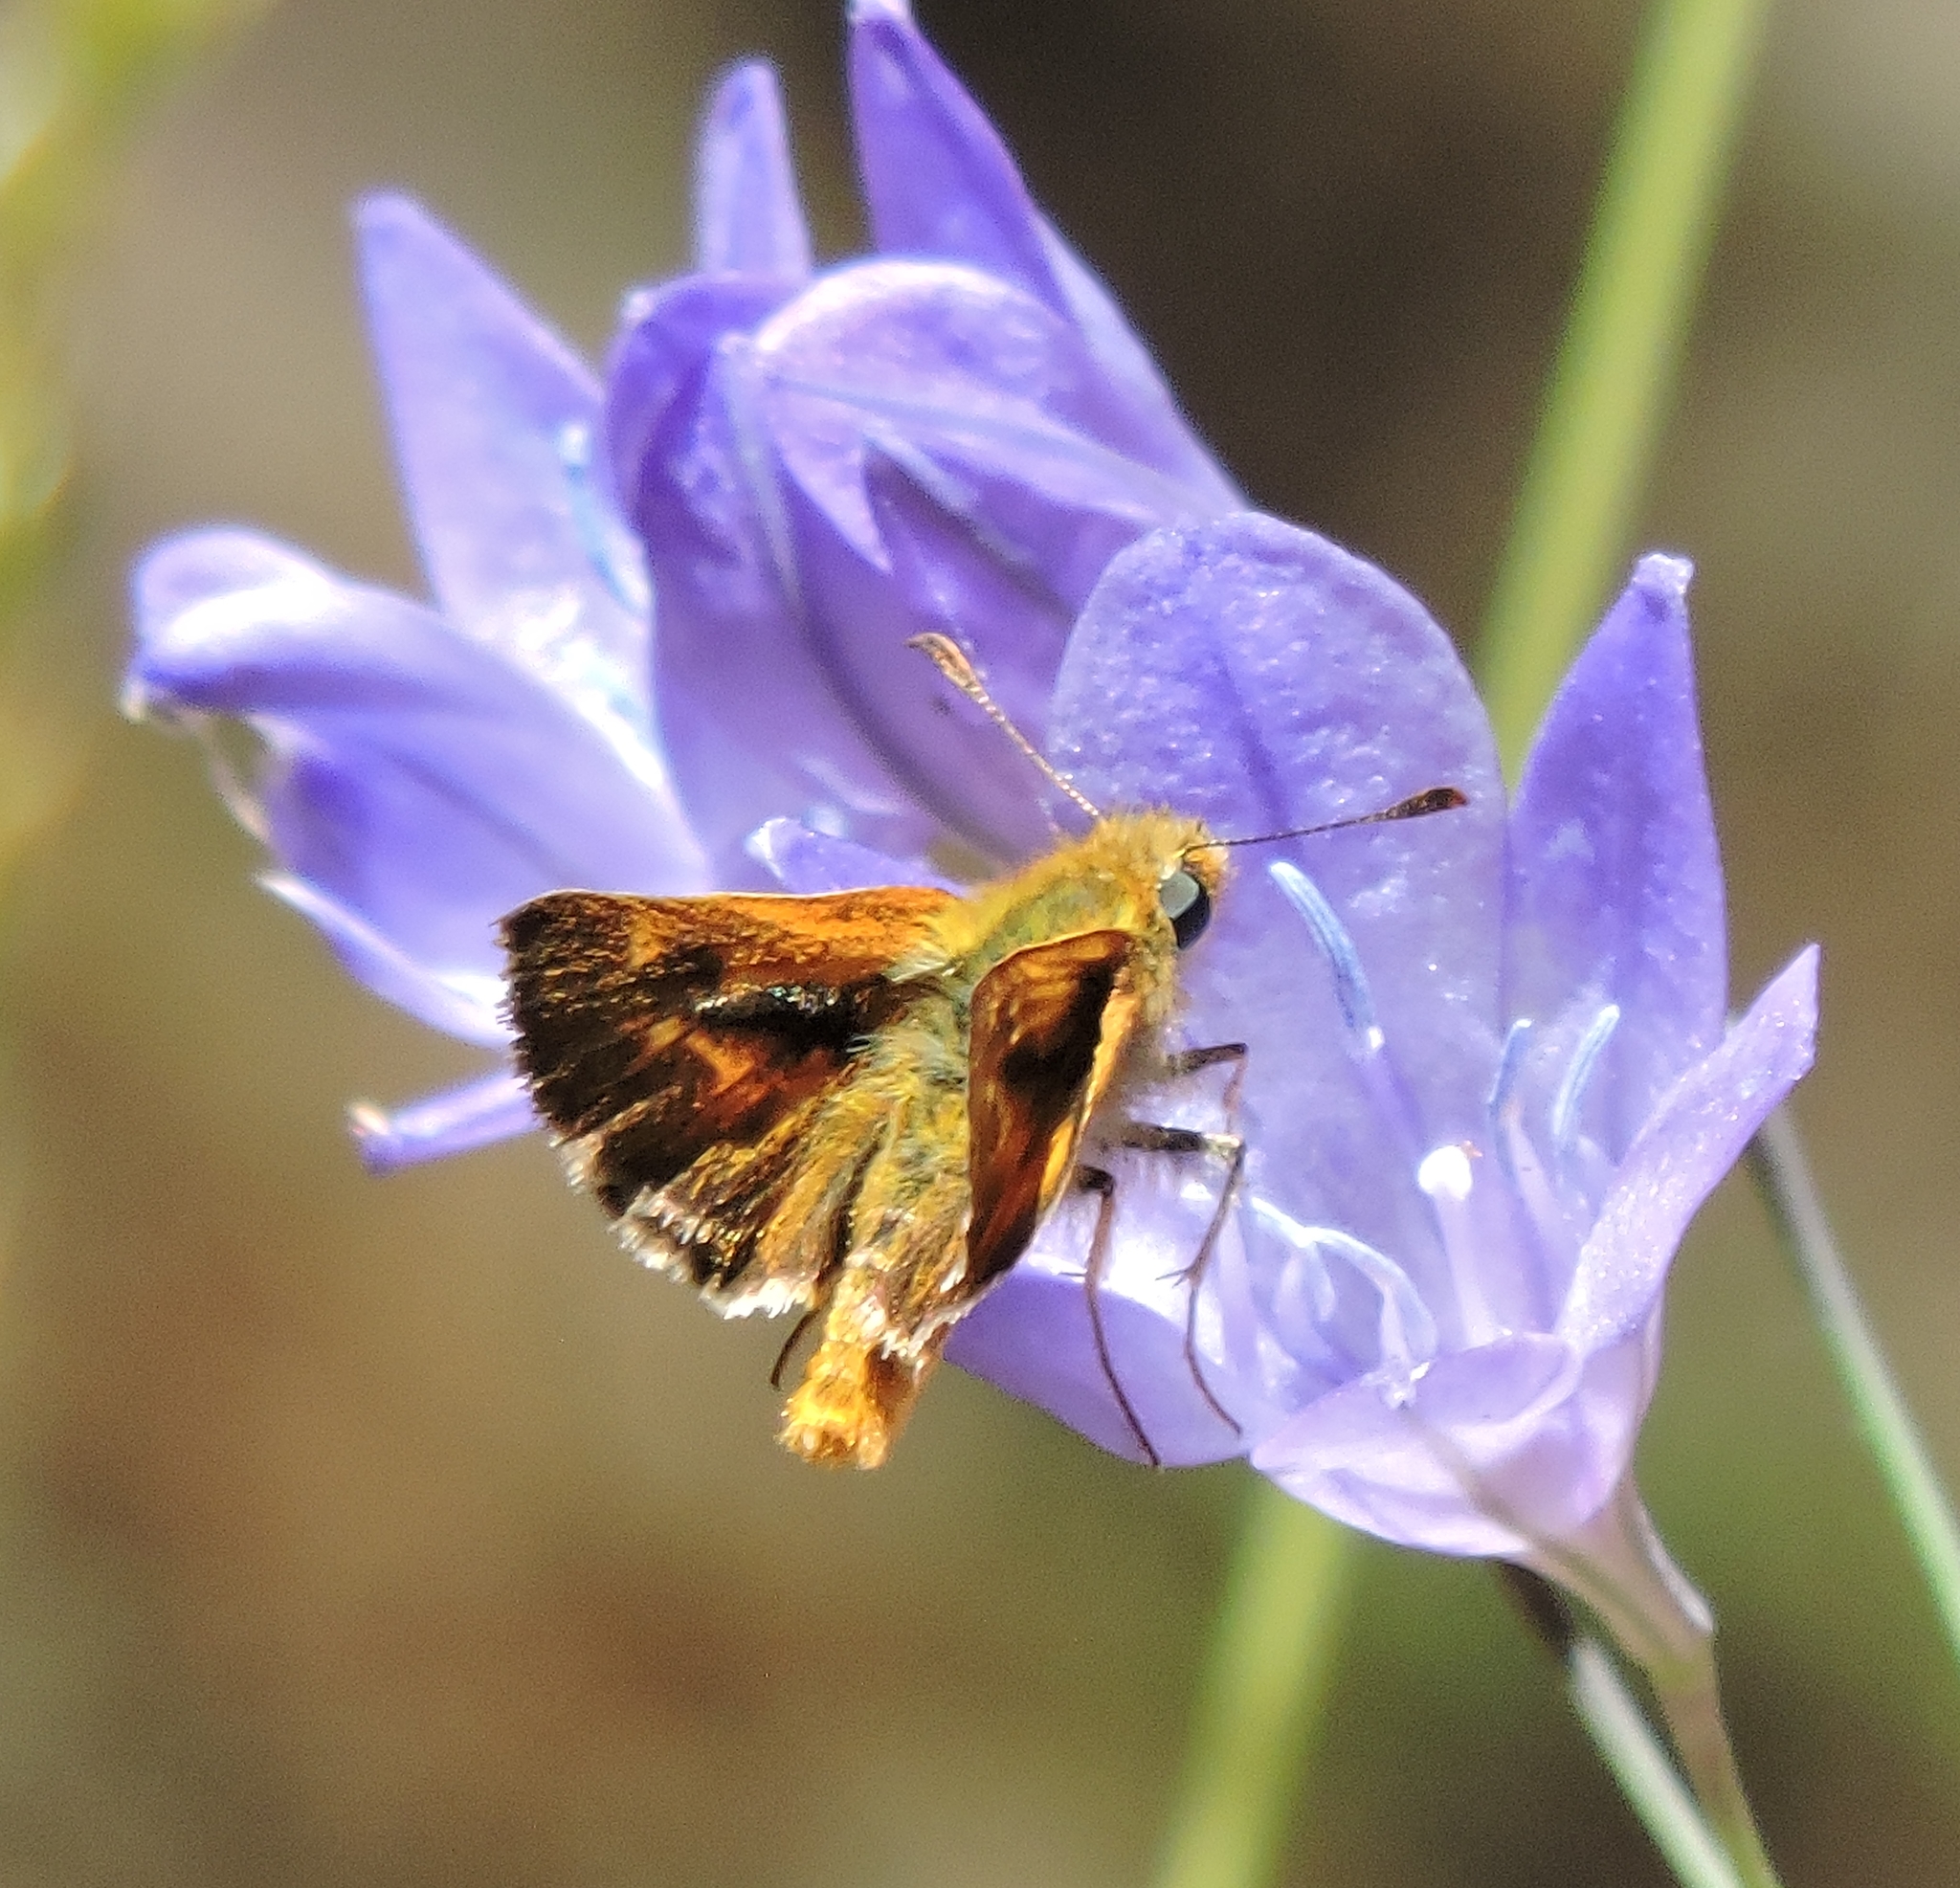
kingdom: Animalia
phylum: Arthropoda
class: Insecta
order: Lepidoptera
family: Hesperiidae
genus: Ochlodes
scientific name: Ochlodes agricola
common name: Rural skipper
